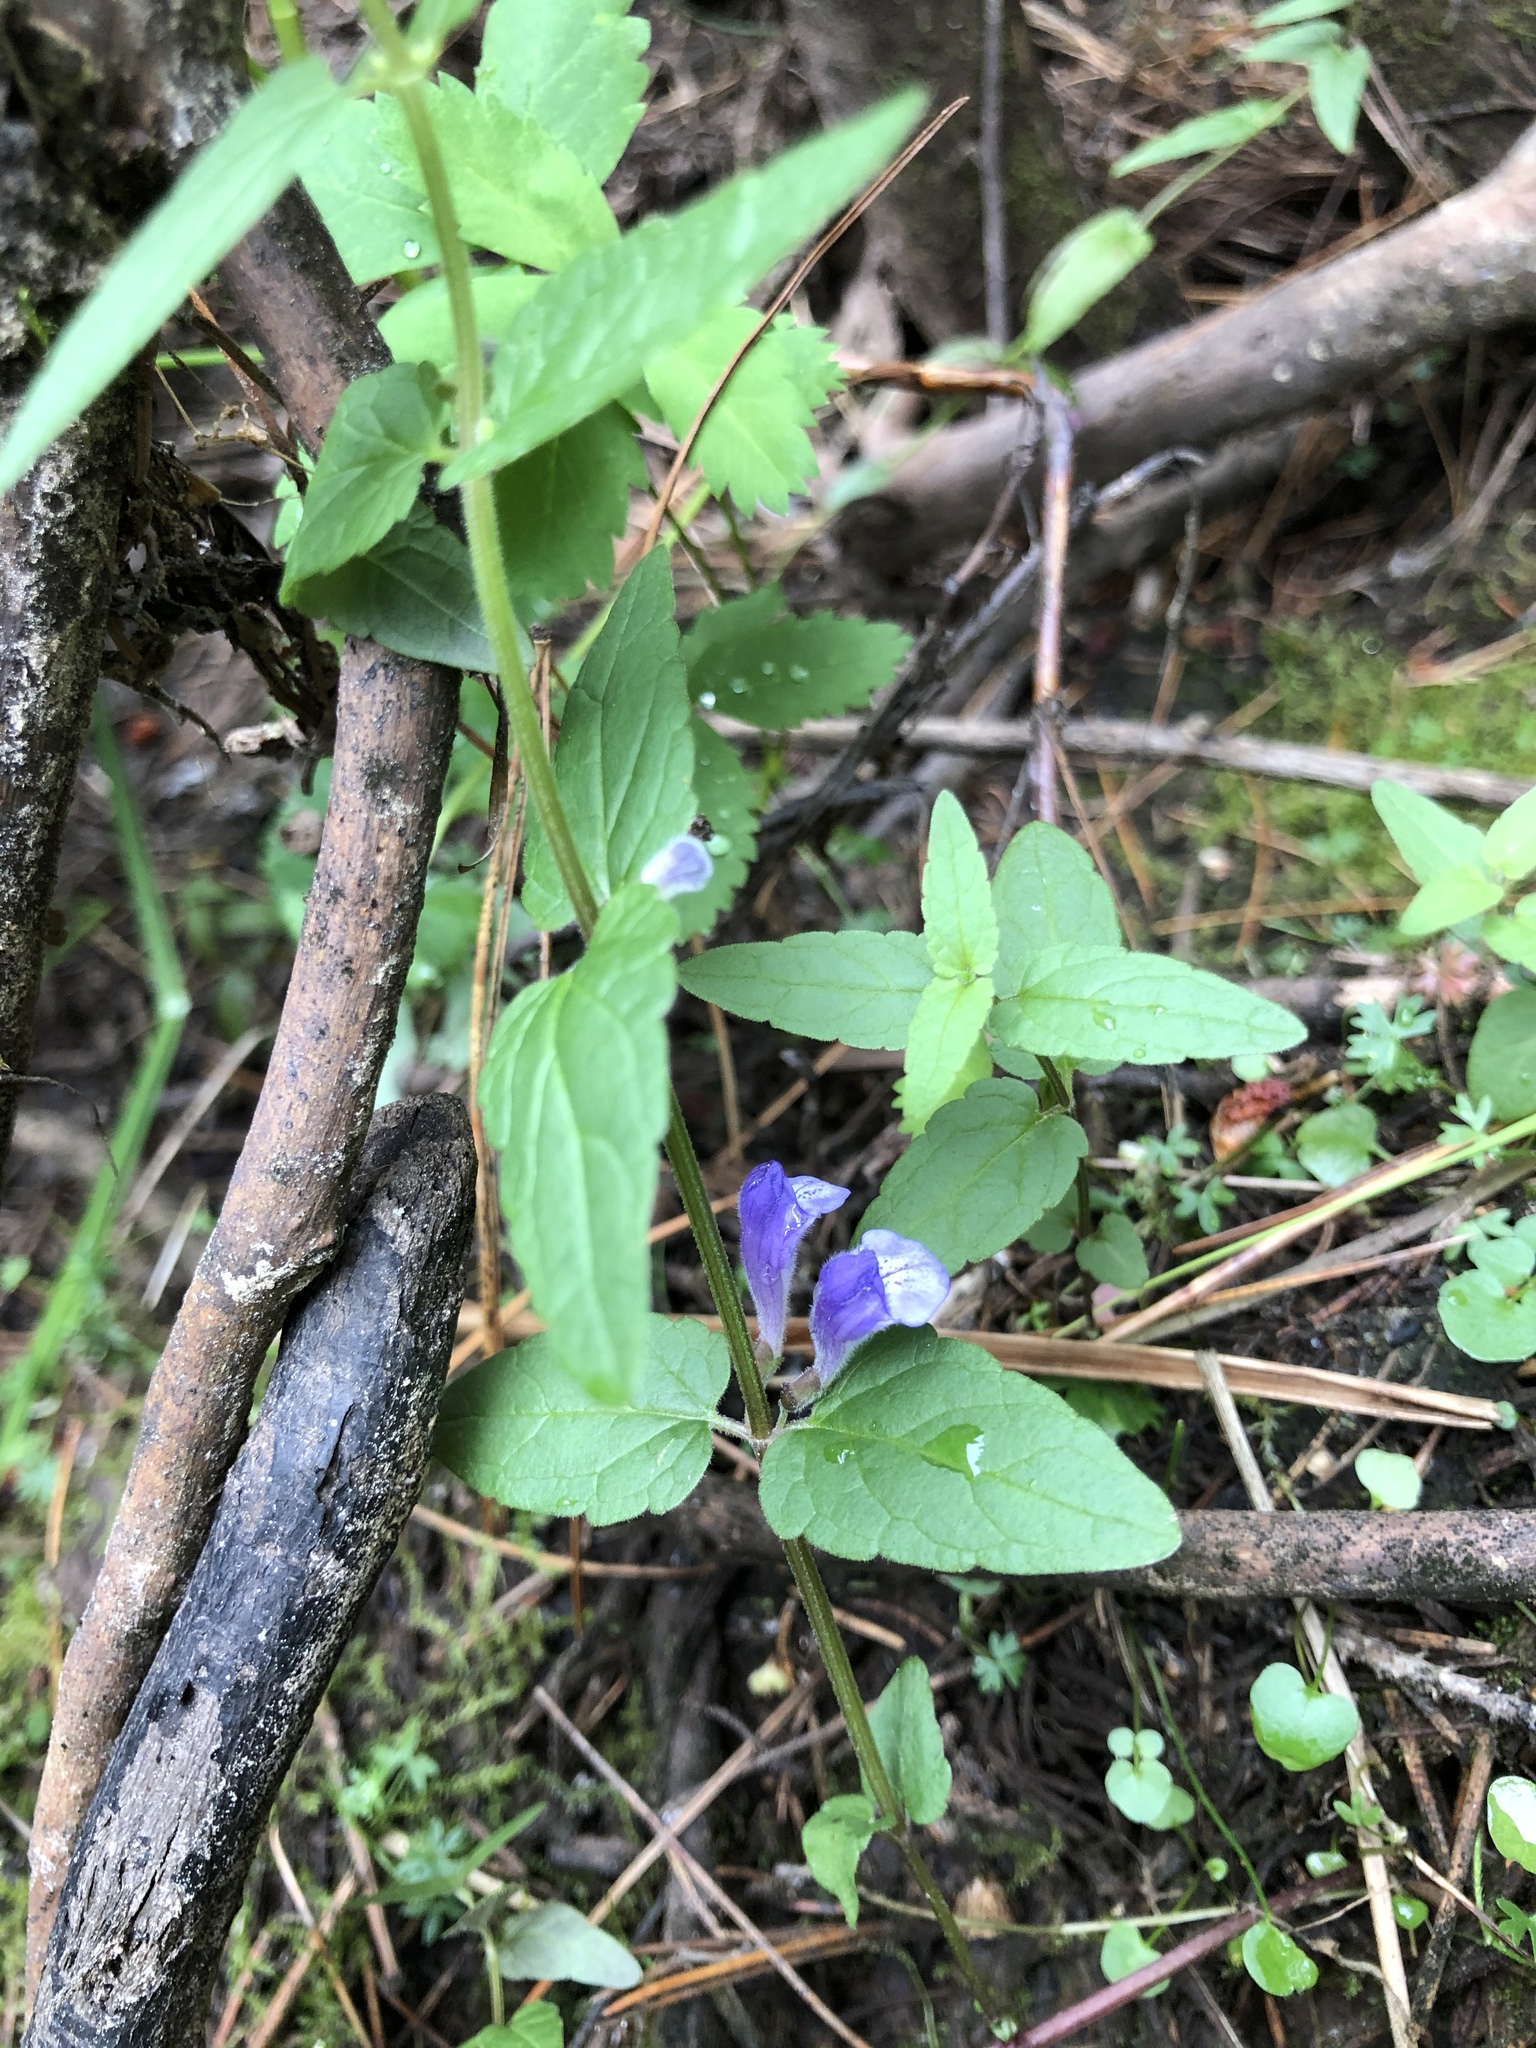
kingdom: Plantae
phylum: Tracheophyta
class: Magnoliopsida
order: Lamiales
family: Lamiaceae
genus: Scutellaria
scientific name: Scutellaria galericulata
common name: Skullcap
